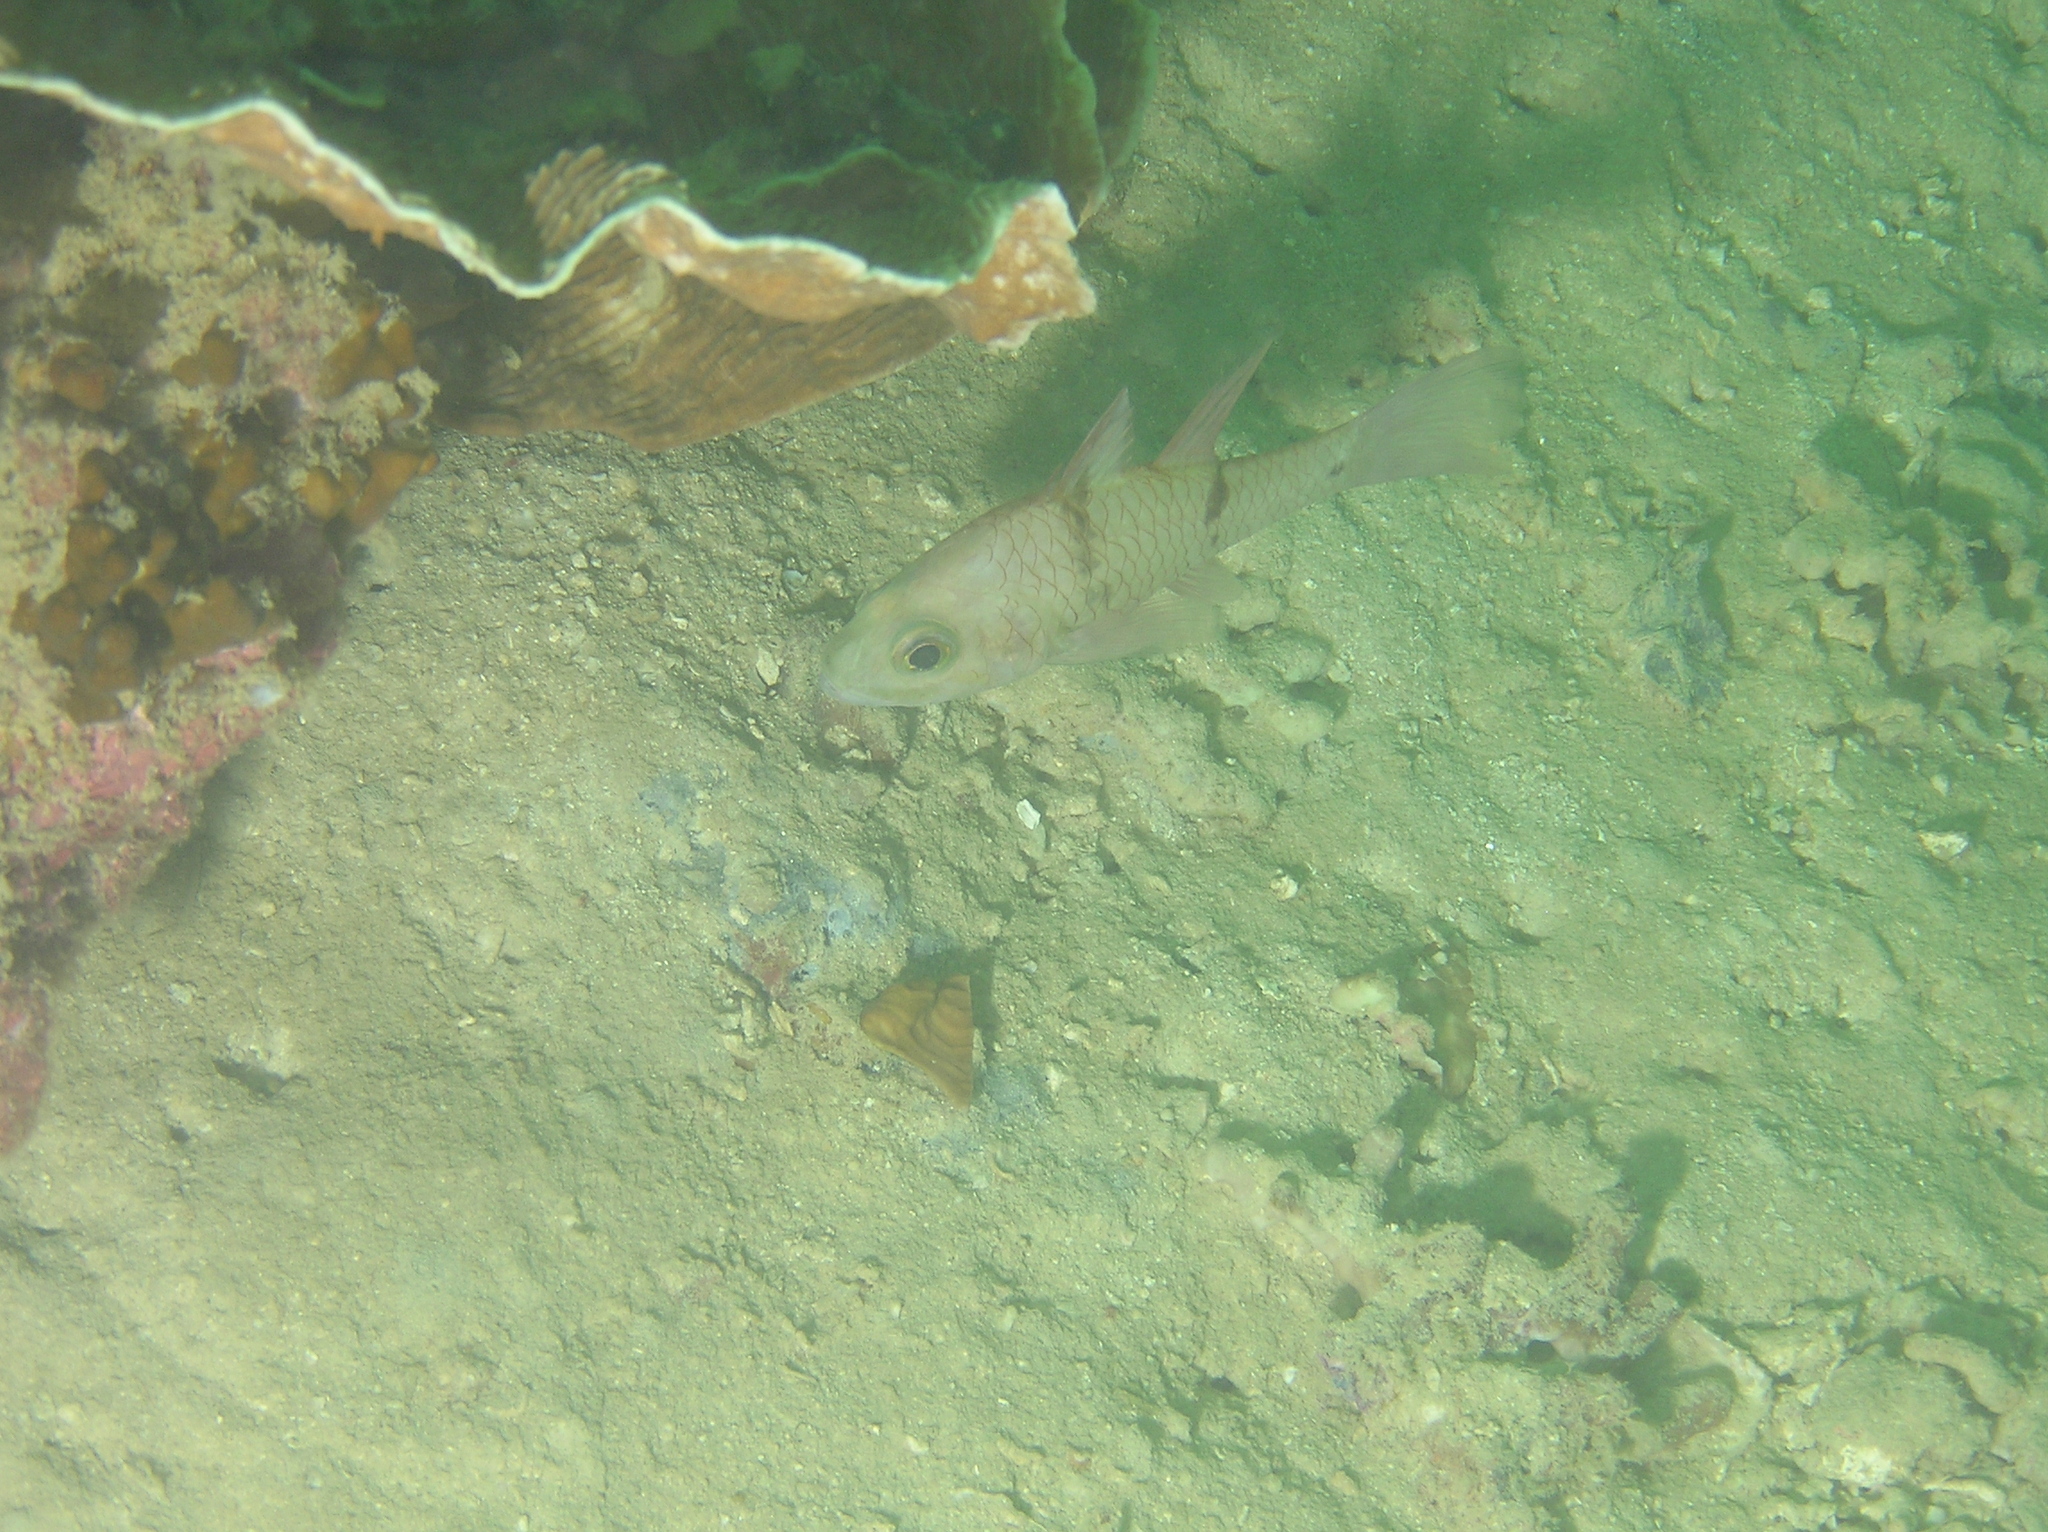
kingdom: Animalia
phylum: Chordata
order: Perciformes
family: Apogonidae
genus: Pristicon
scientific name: Pristicon rhodopterus
